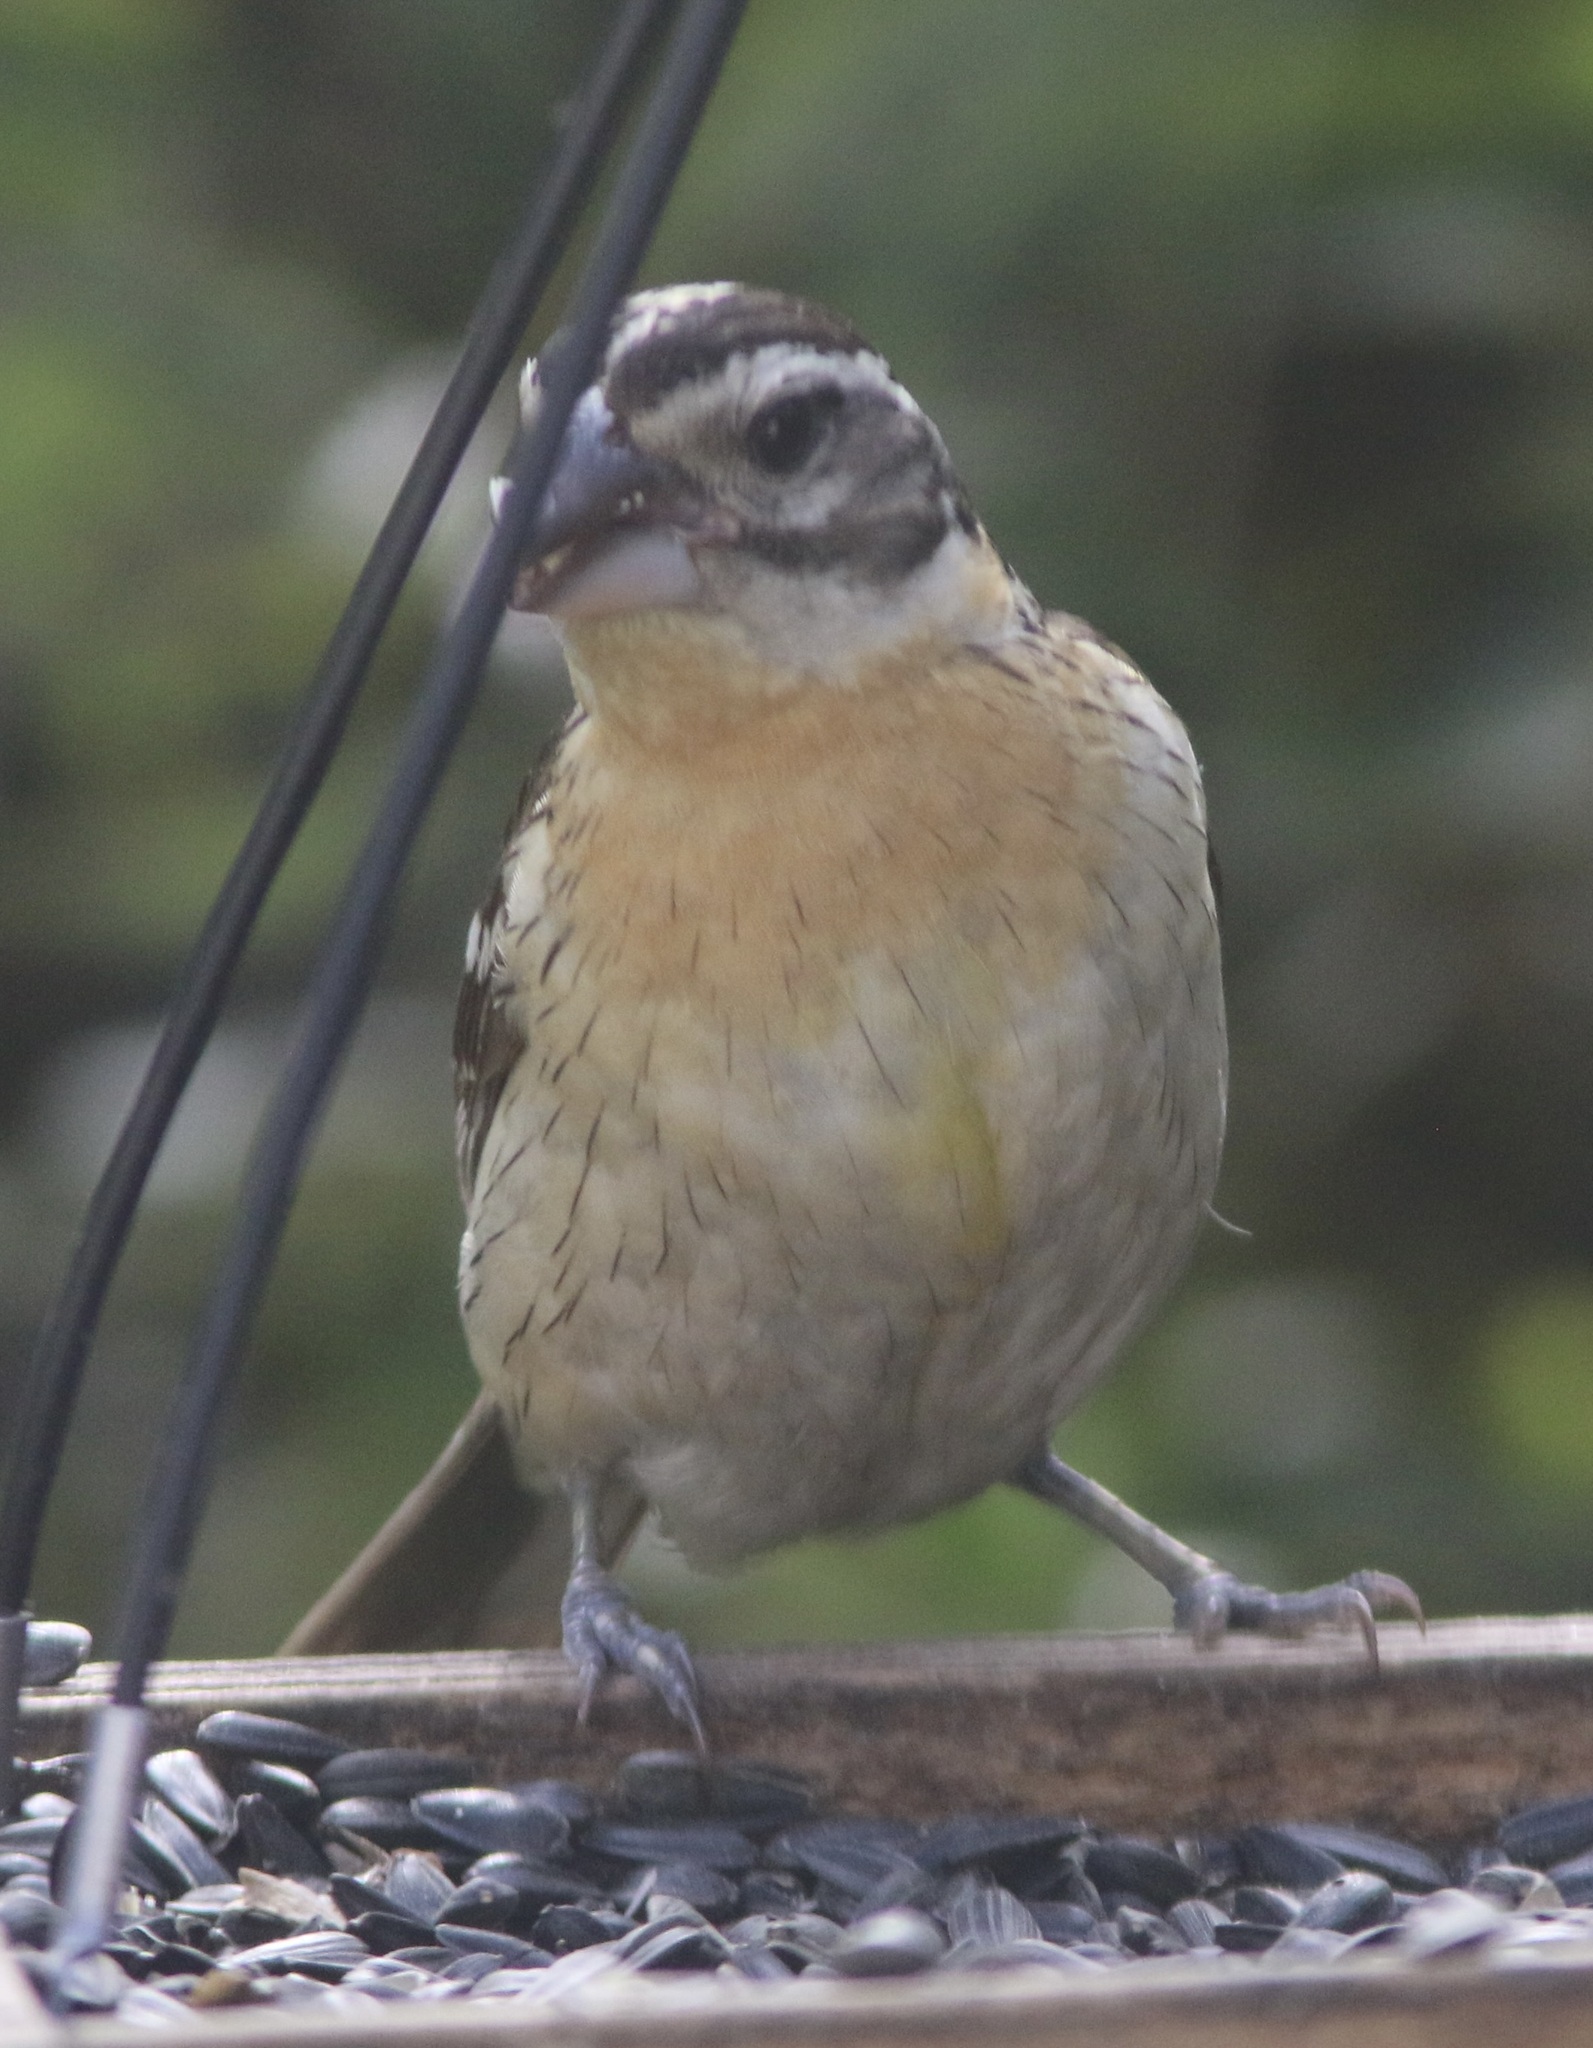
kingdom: Animalia
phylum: Chordata
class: Aves
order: Passeriformes
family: Cardinalidae
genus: Pheucticus
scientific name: Pheucticus melanocephalus
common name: Black-headed grosbeak
